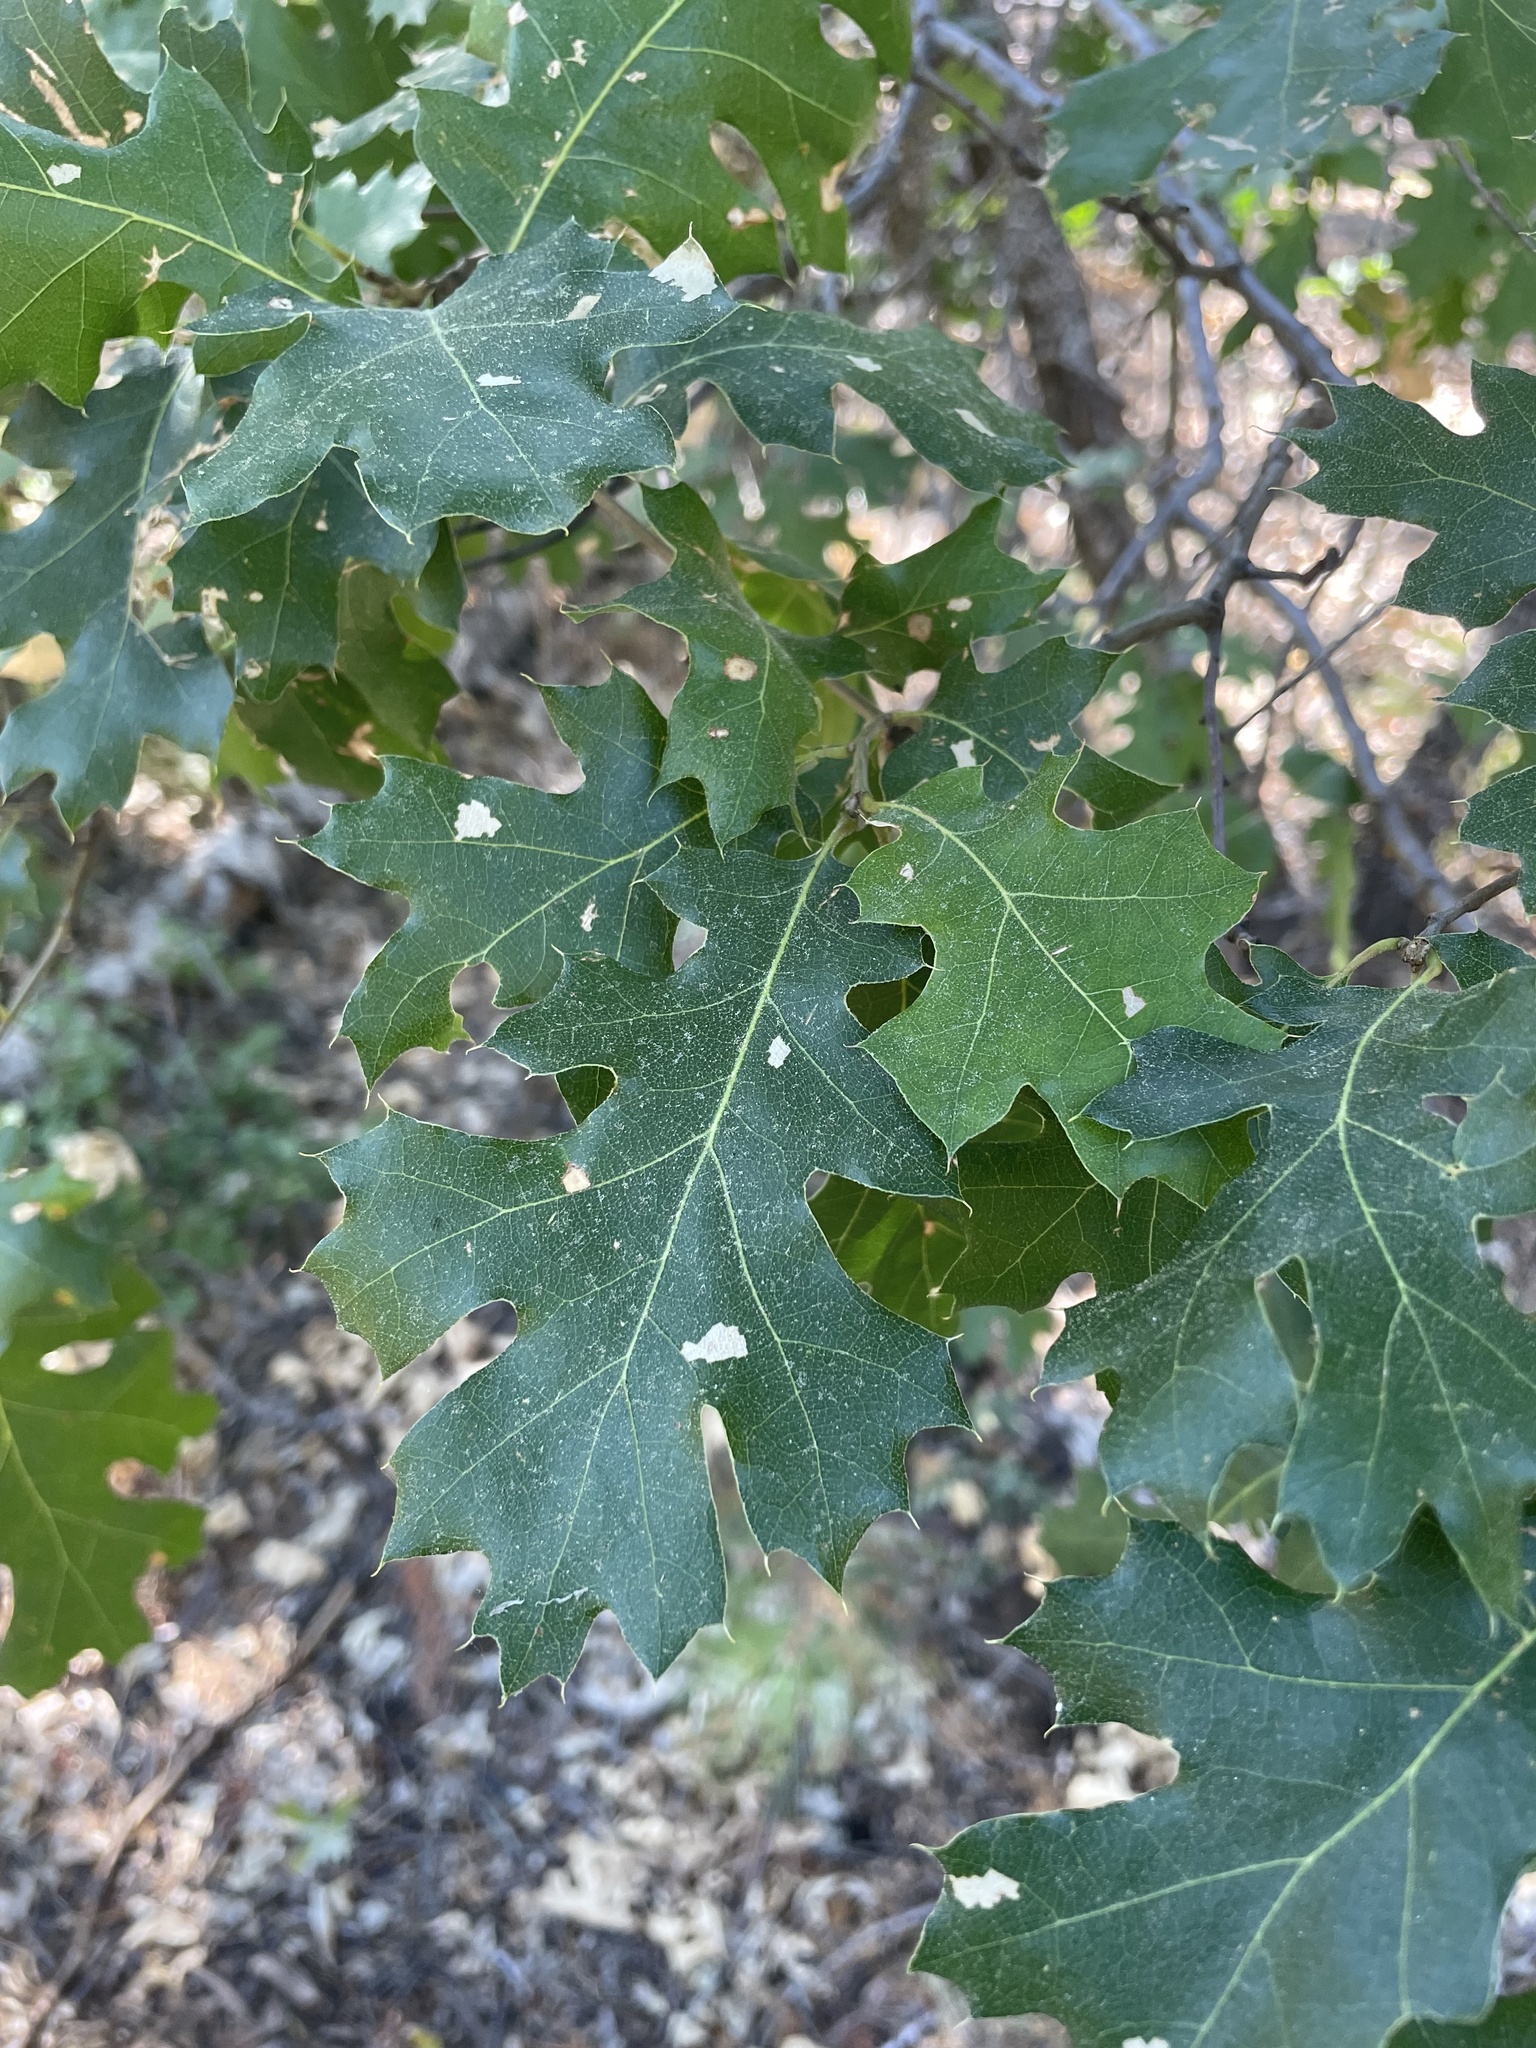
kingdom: Plantae
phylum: Tracheophyta
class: Magnoliopsida
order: Fagales
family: Fagaceae
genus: Quercus
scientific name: Quercus kelloggii
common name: California black oak
